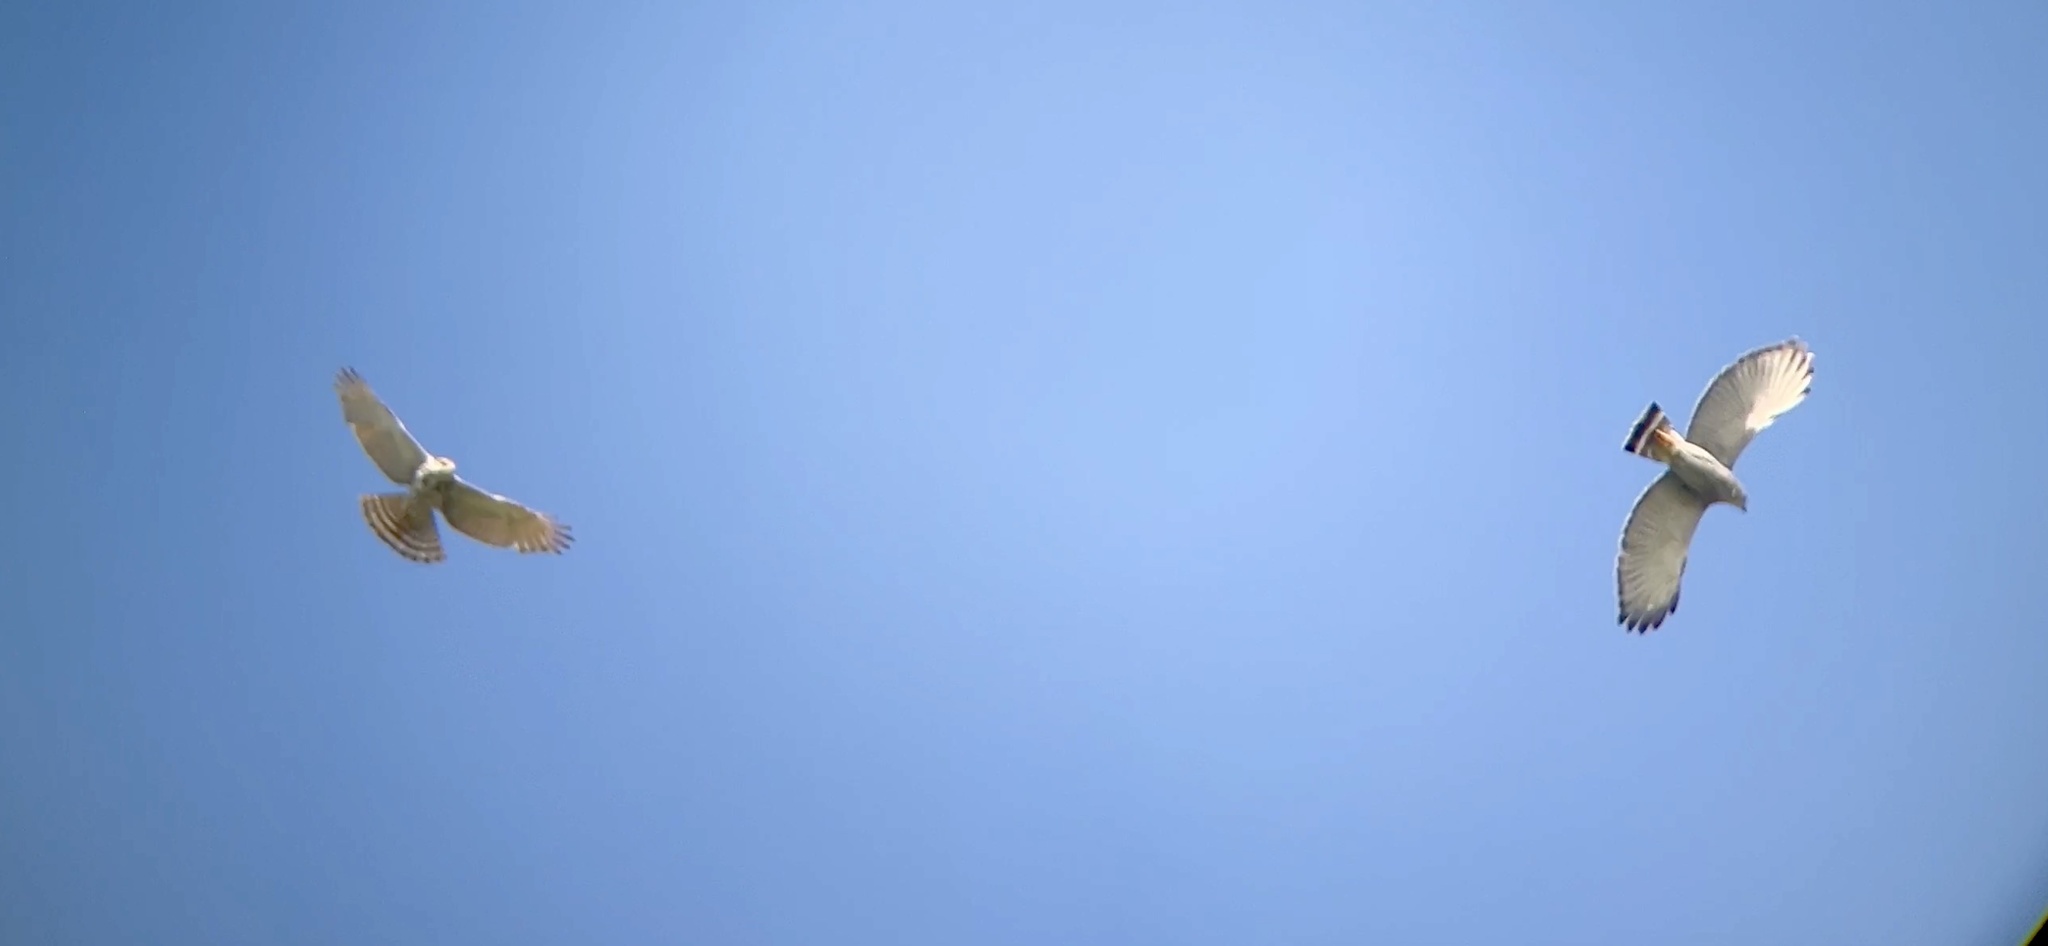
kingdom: Animalia
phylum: Chordata
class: Aves
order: Accipitriformes
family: Accipitridae
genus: Buteo
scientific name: Buteo nitidus
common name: Grey-lined hawk
